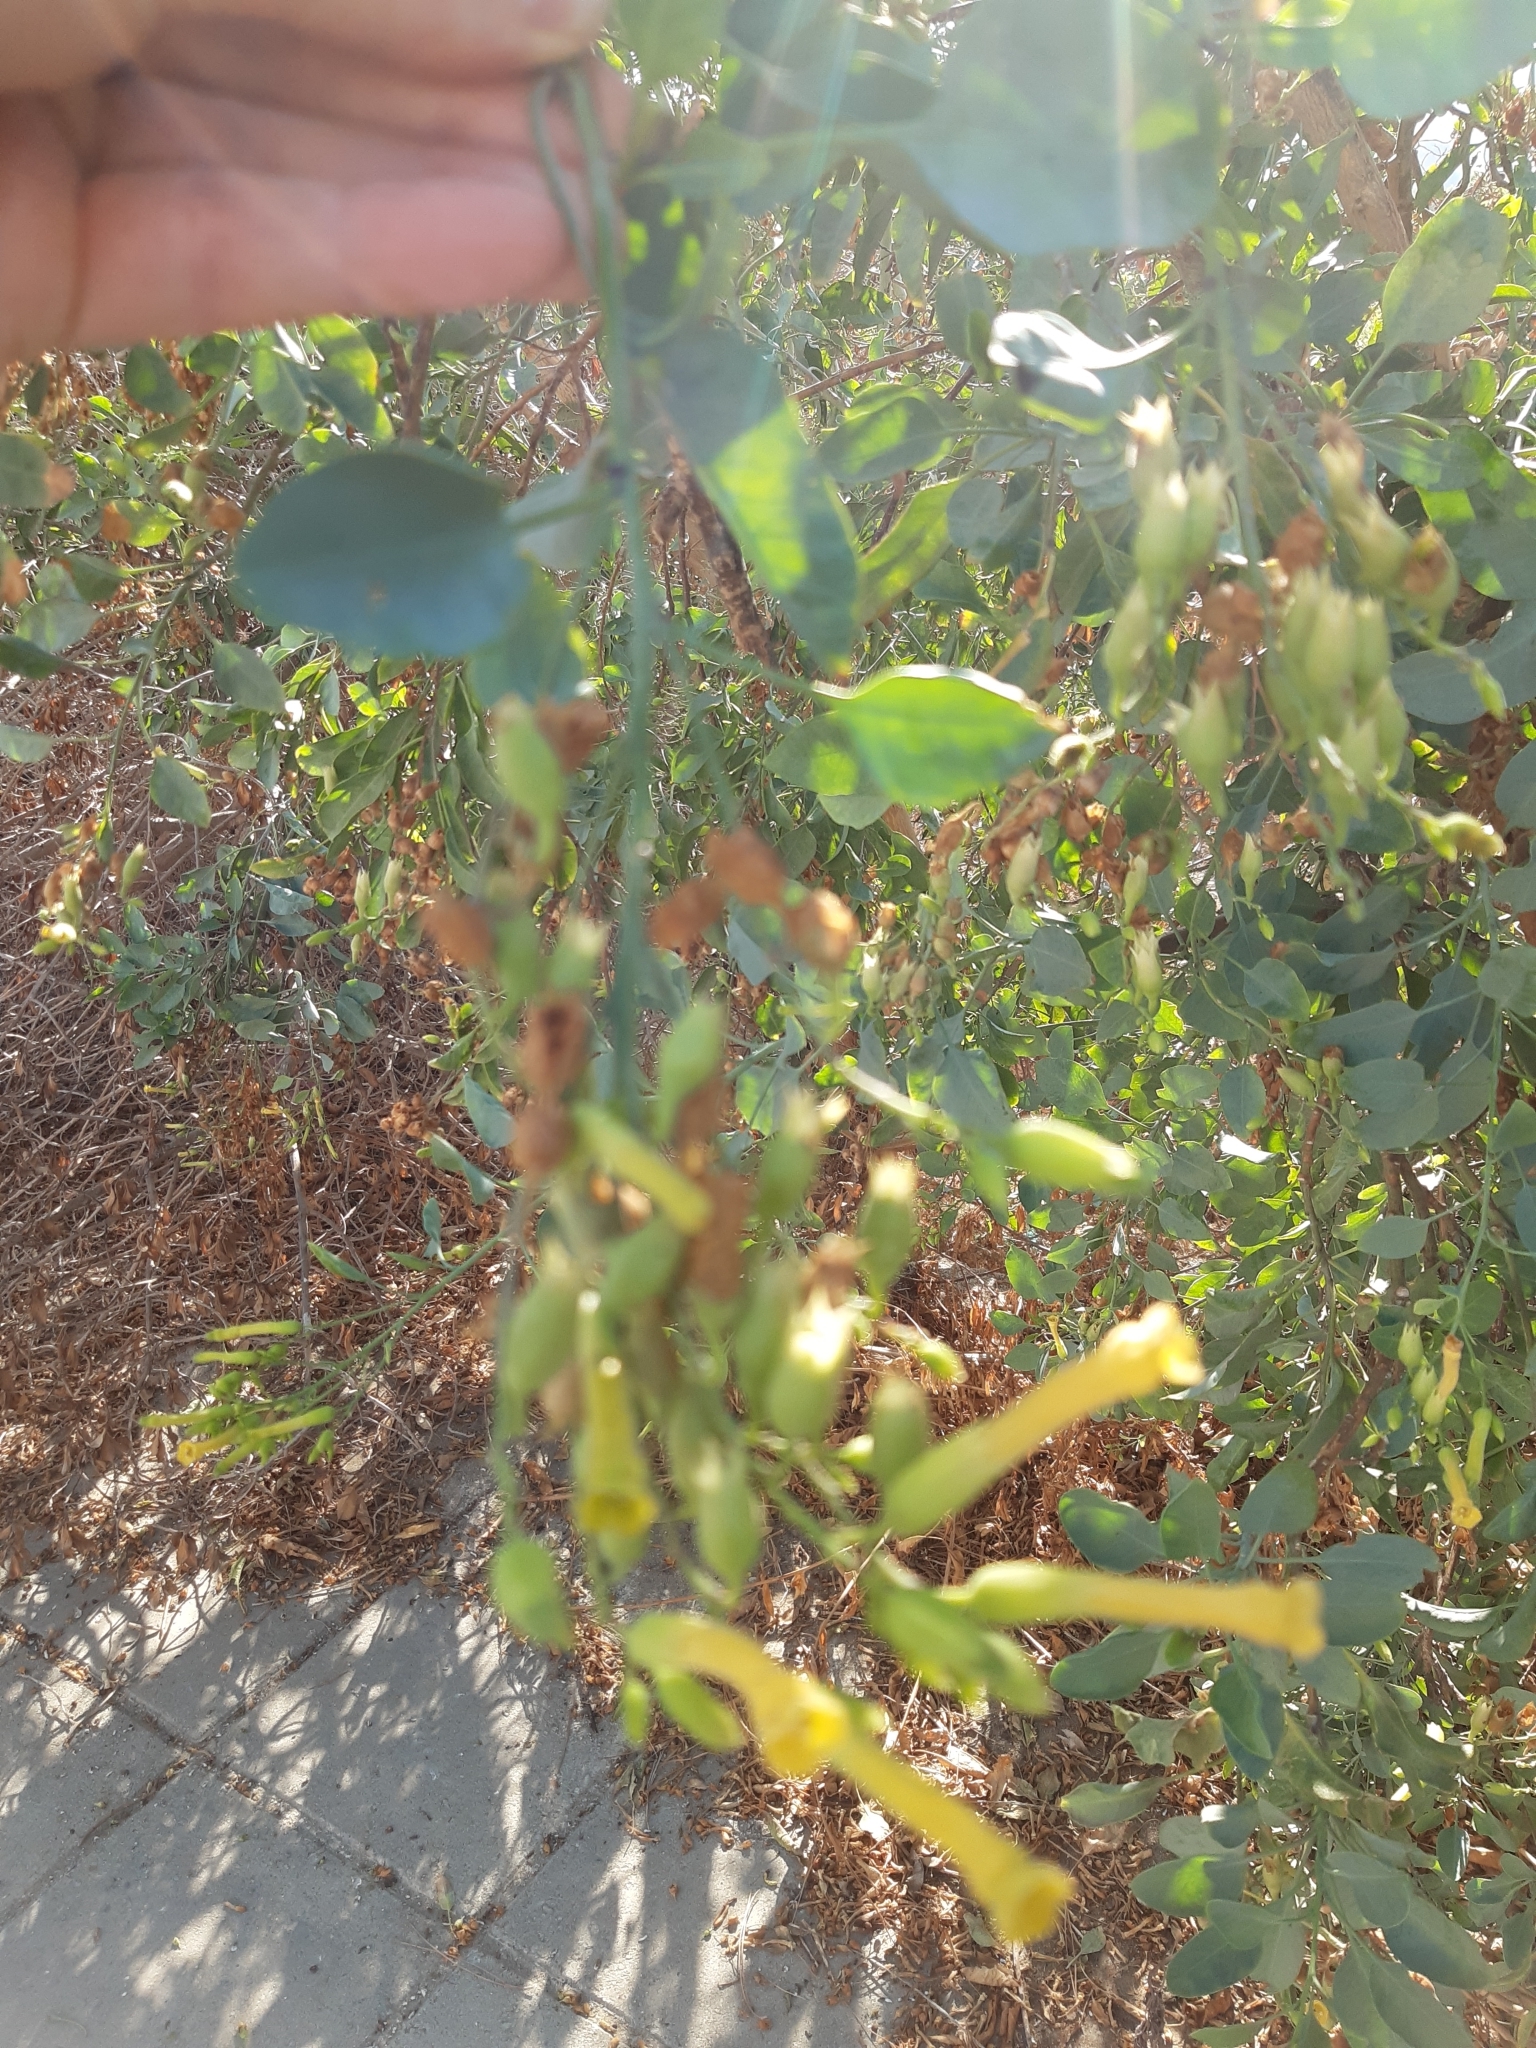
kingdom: Plantae
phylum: Tracheophyta
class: Magnoliopsida
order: Solanales
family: Solanaceae
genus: Nicotiana
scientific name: Nicotiana glauca
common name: Tree tobacco
